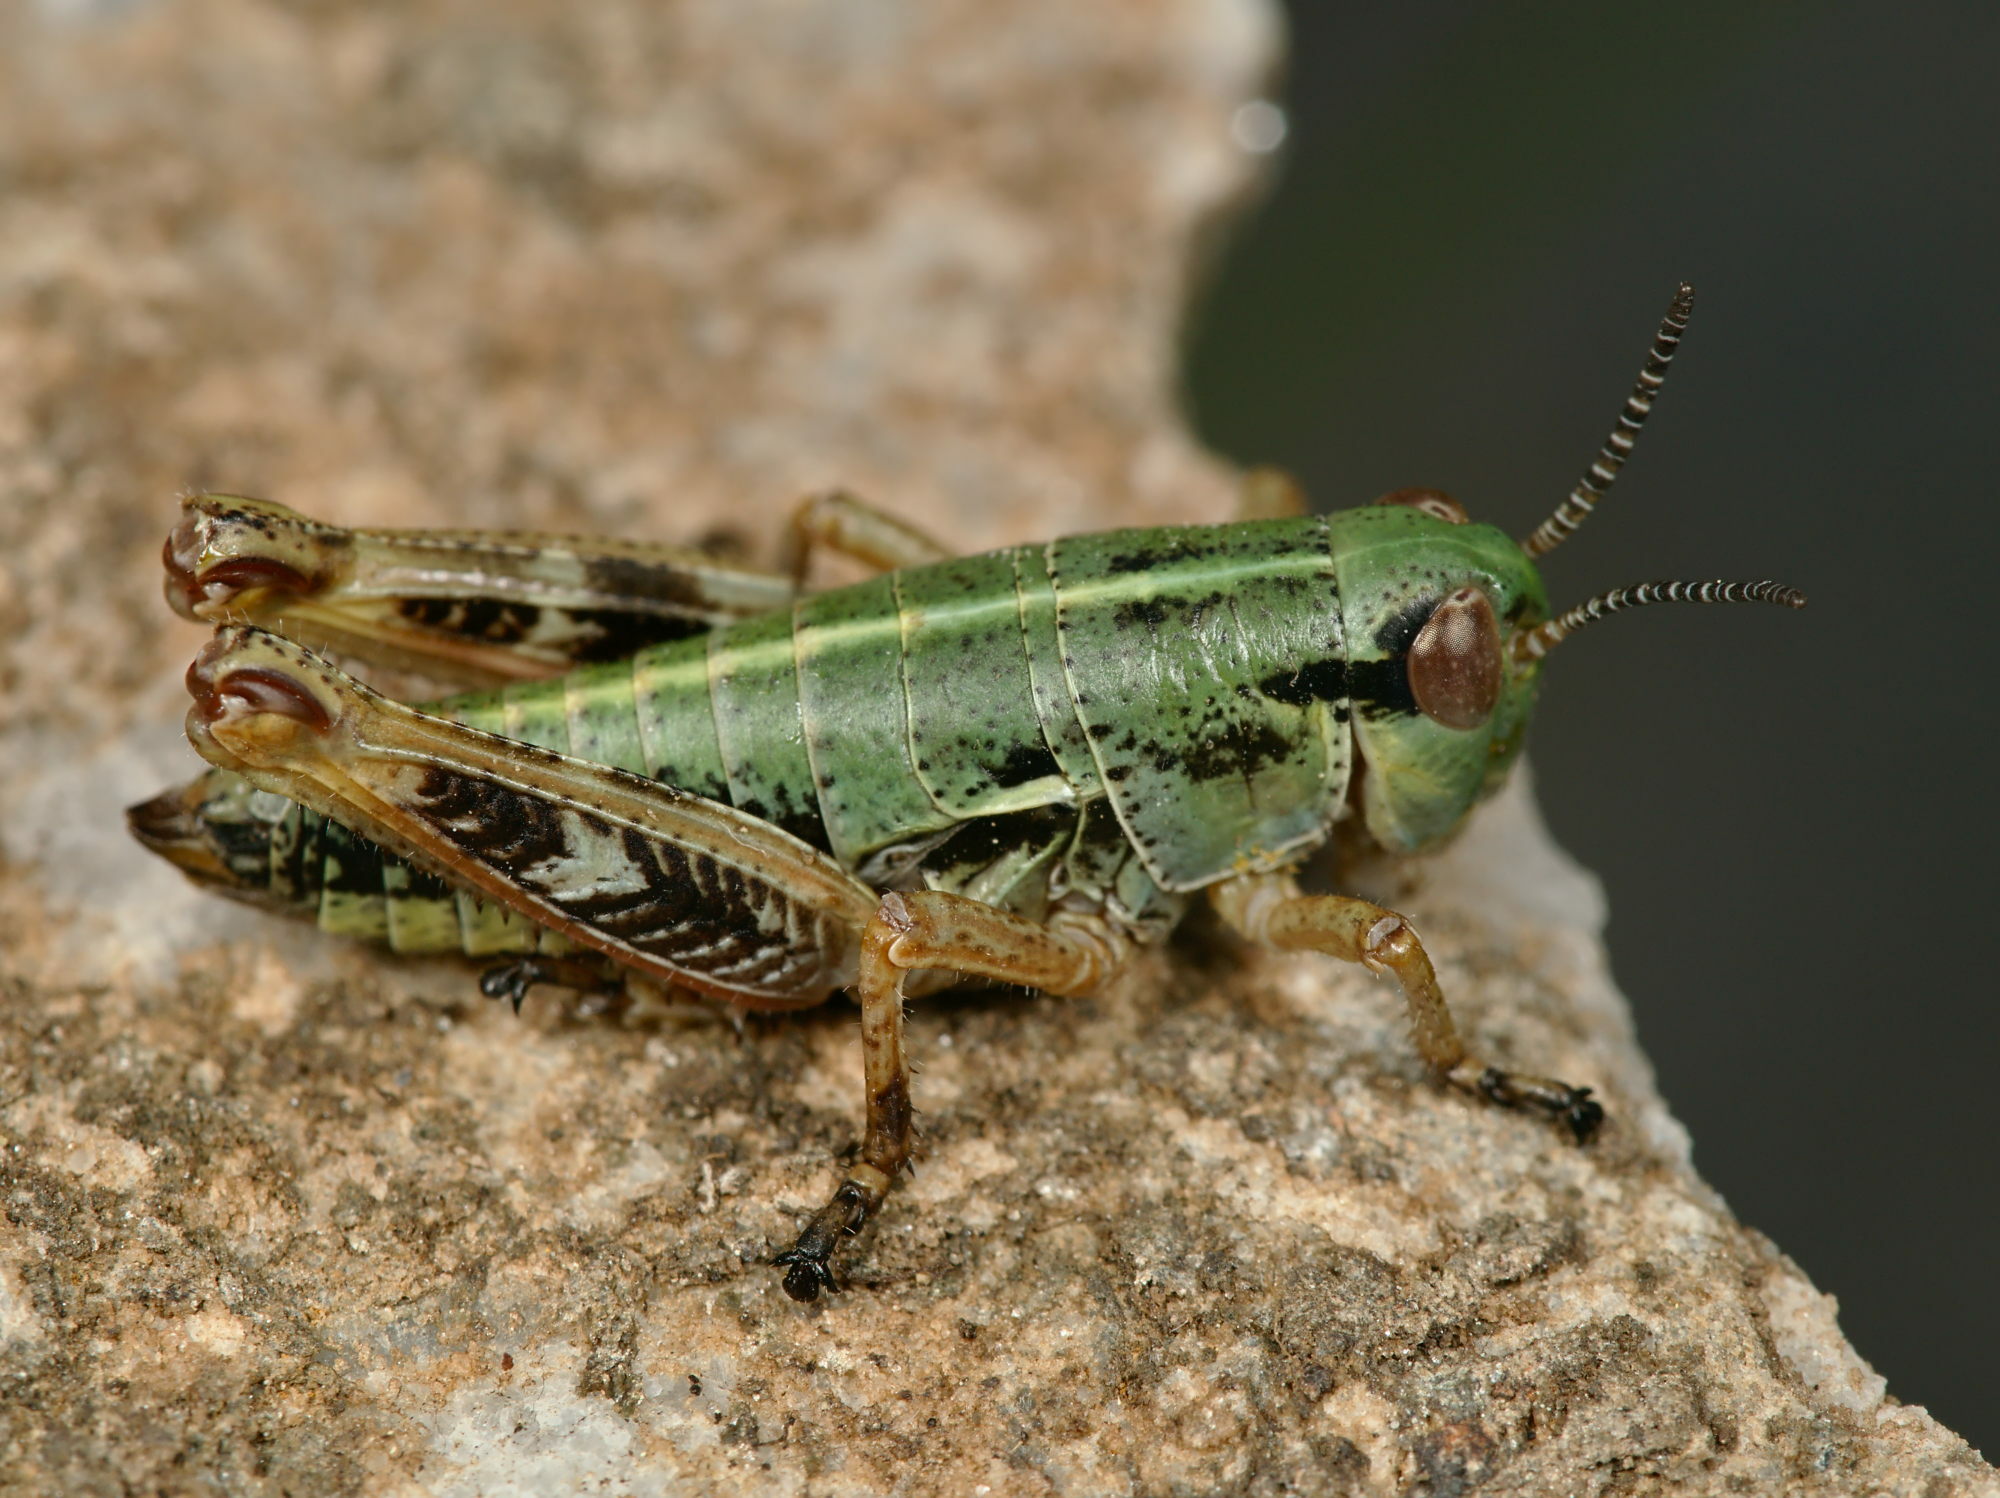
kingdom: Animalia
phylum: Arthropoda
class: Insecta
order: Orthoptera
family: Acrididae
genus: Epipodisma
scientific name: Epipodisma pedemontana
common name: Piedmont mountain grasshopper
